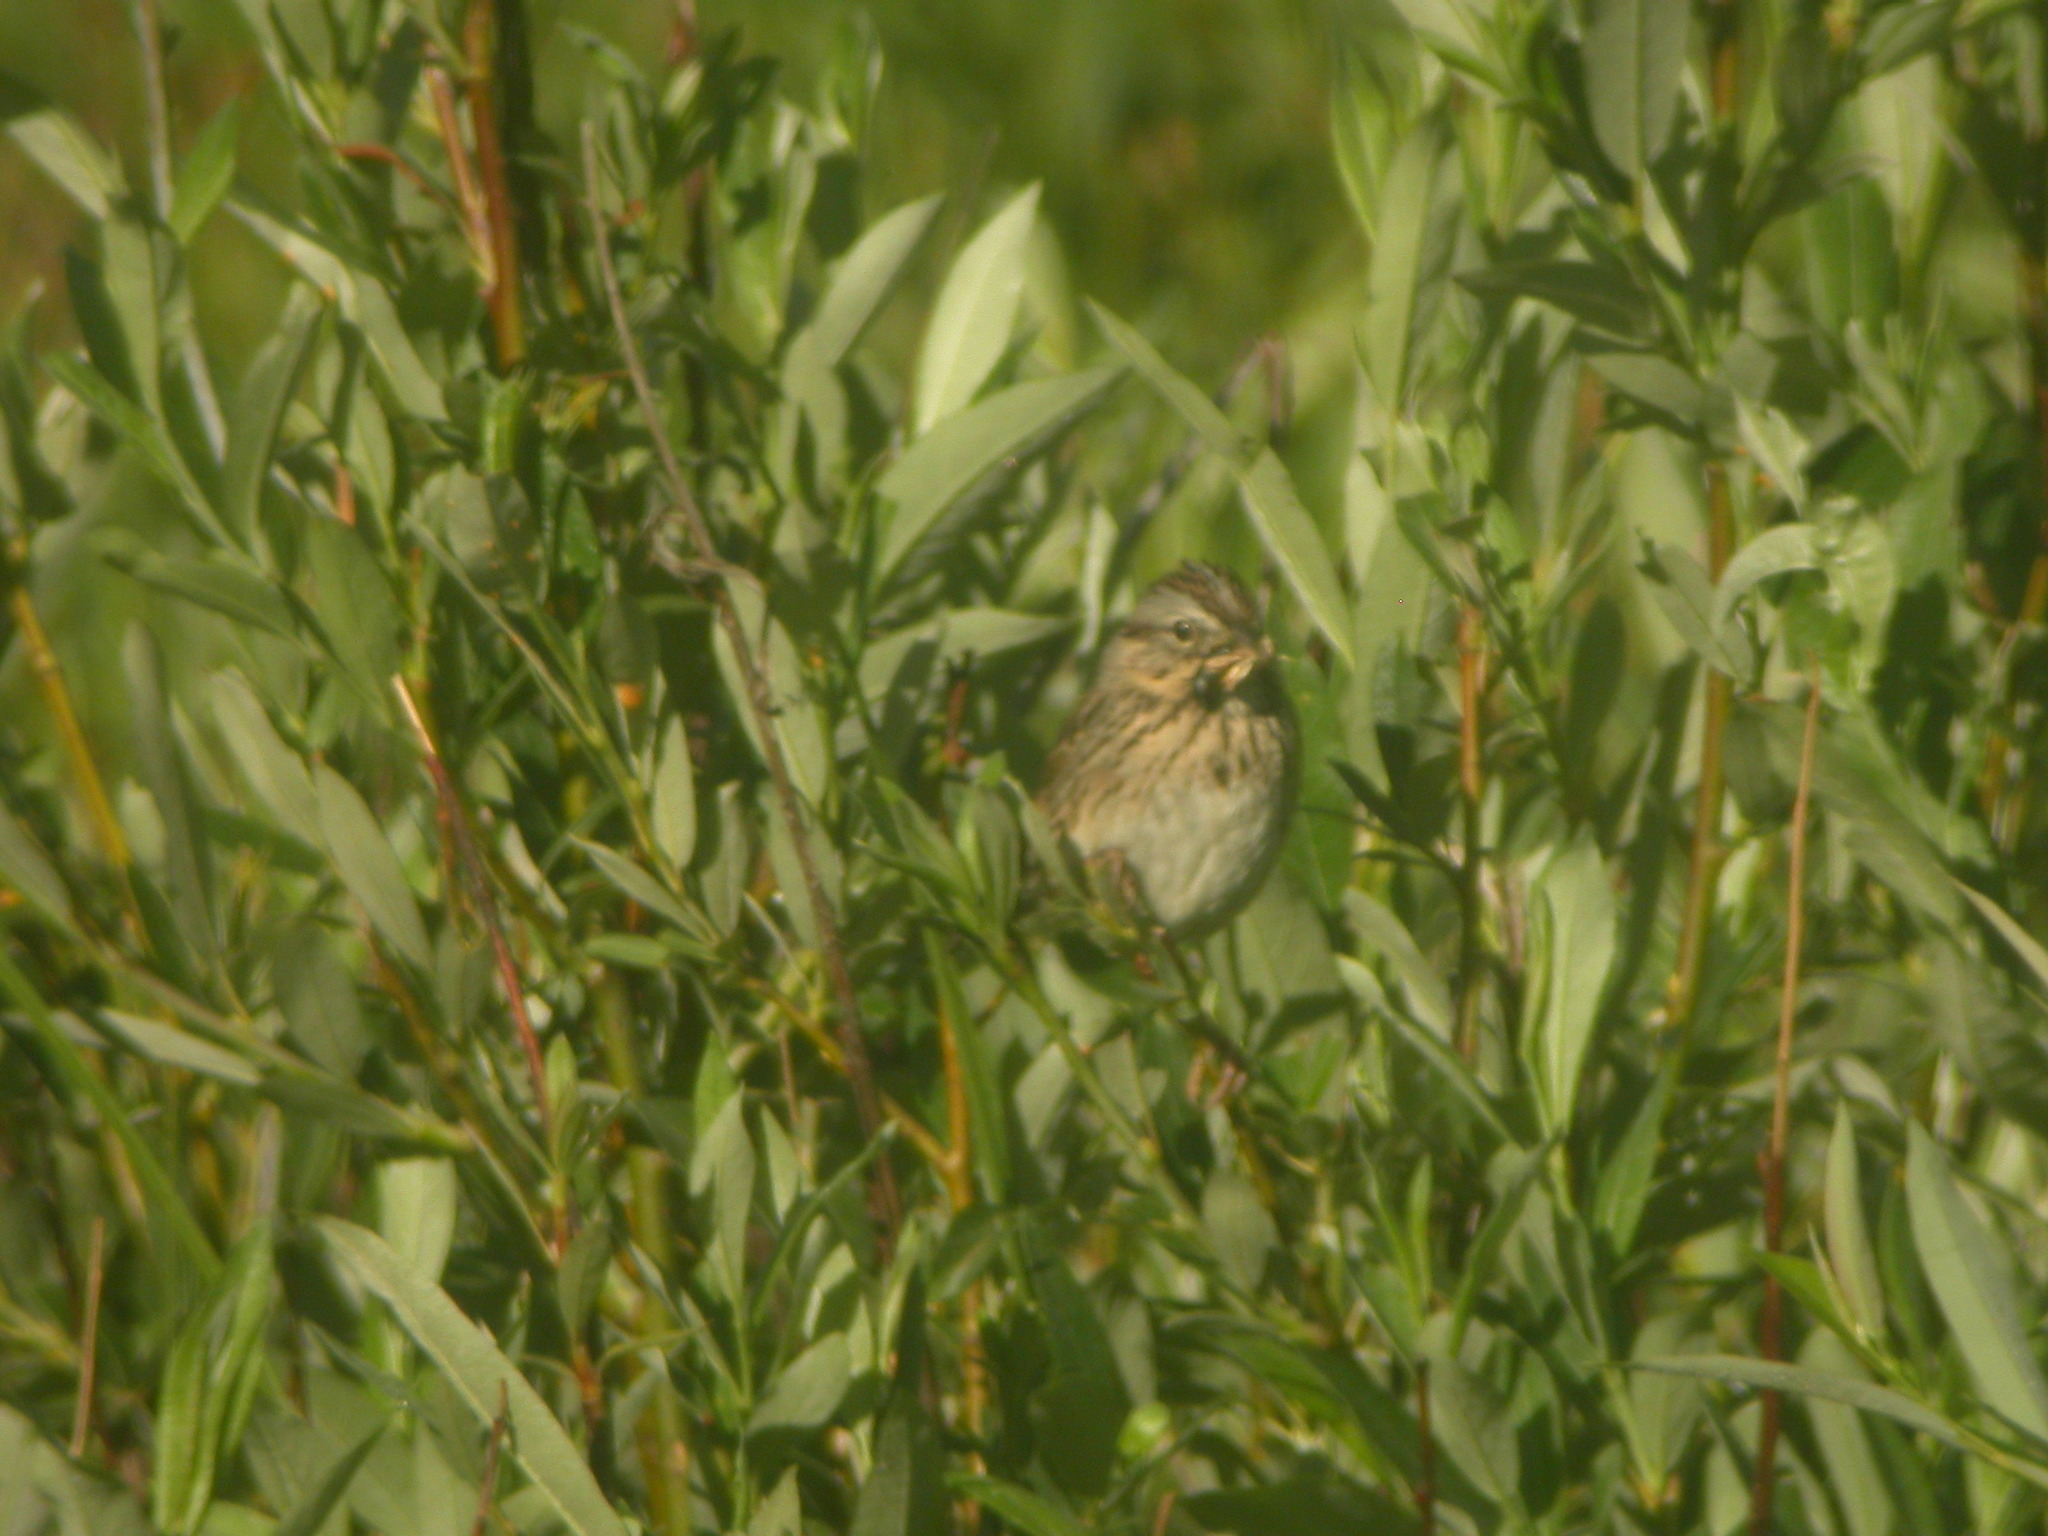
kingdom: Animalia
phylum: Chordata
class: Aves
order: Passeriformes
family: Passerellidae
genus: Melospiza
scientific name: Melospiza lincolnii
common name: Lincoln's sparrow
